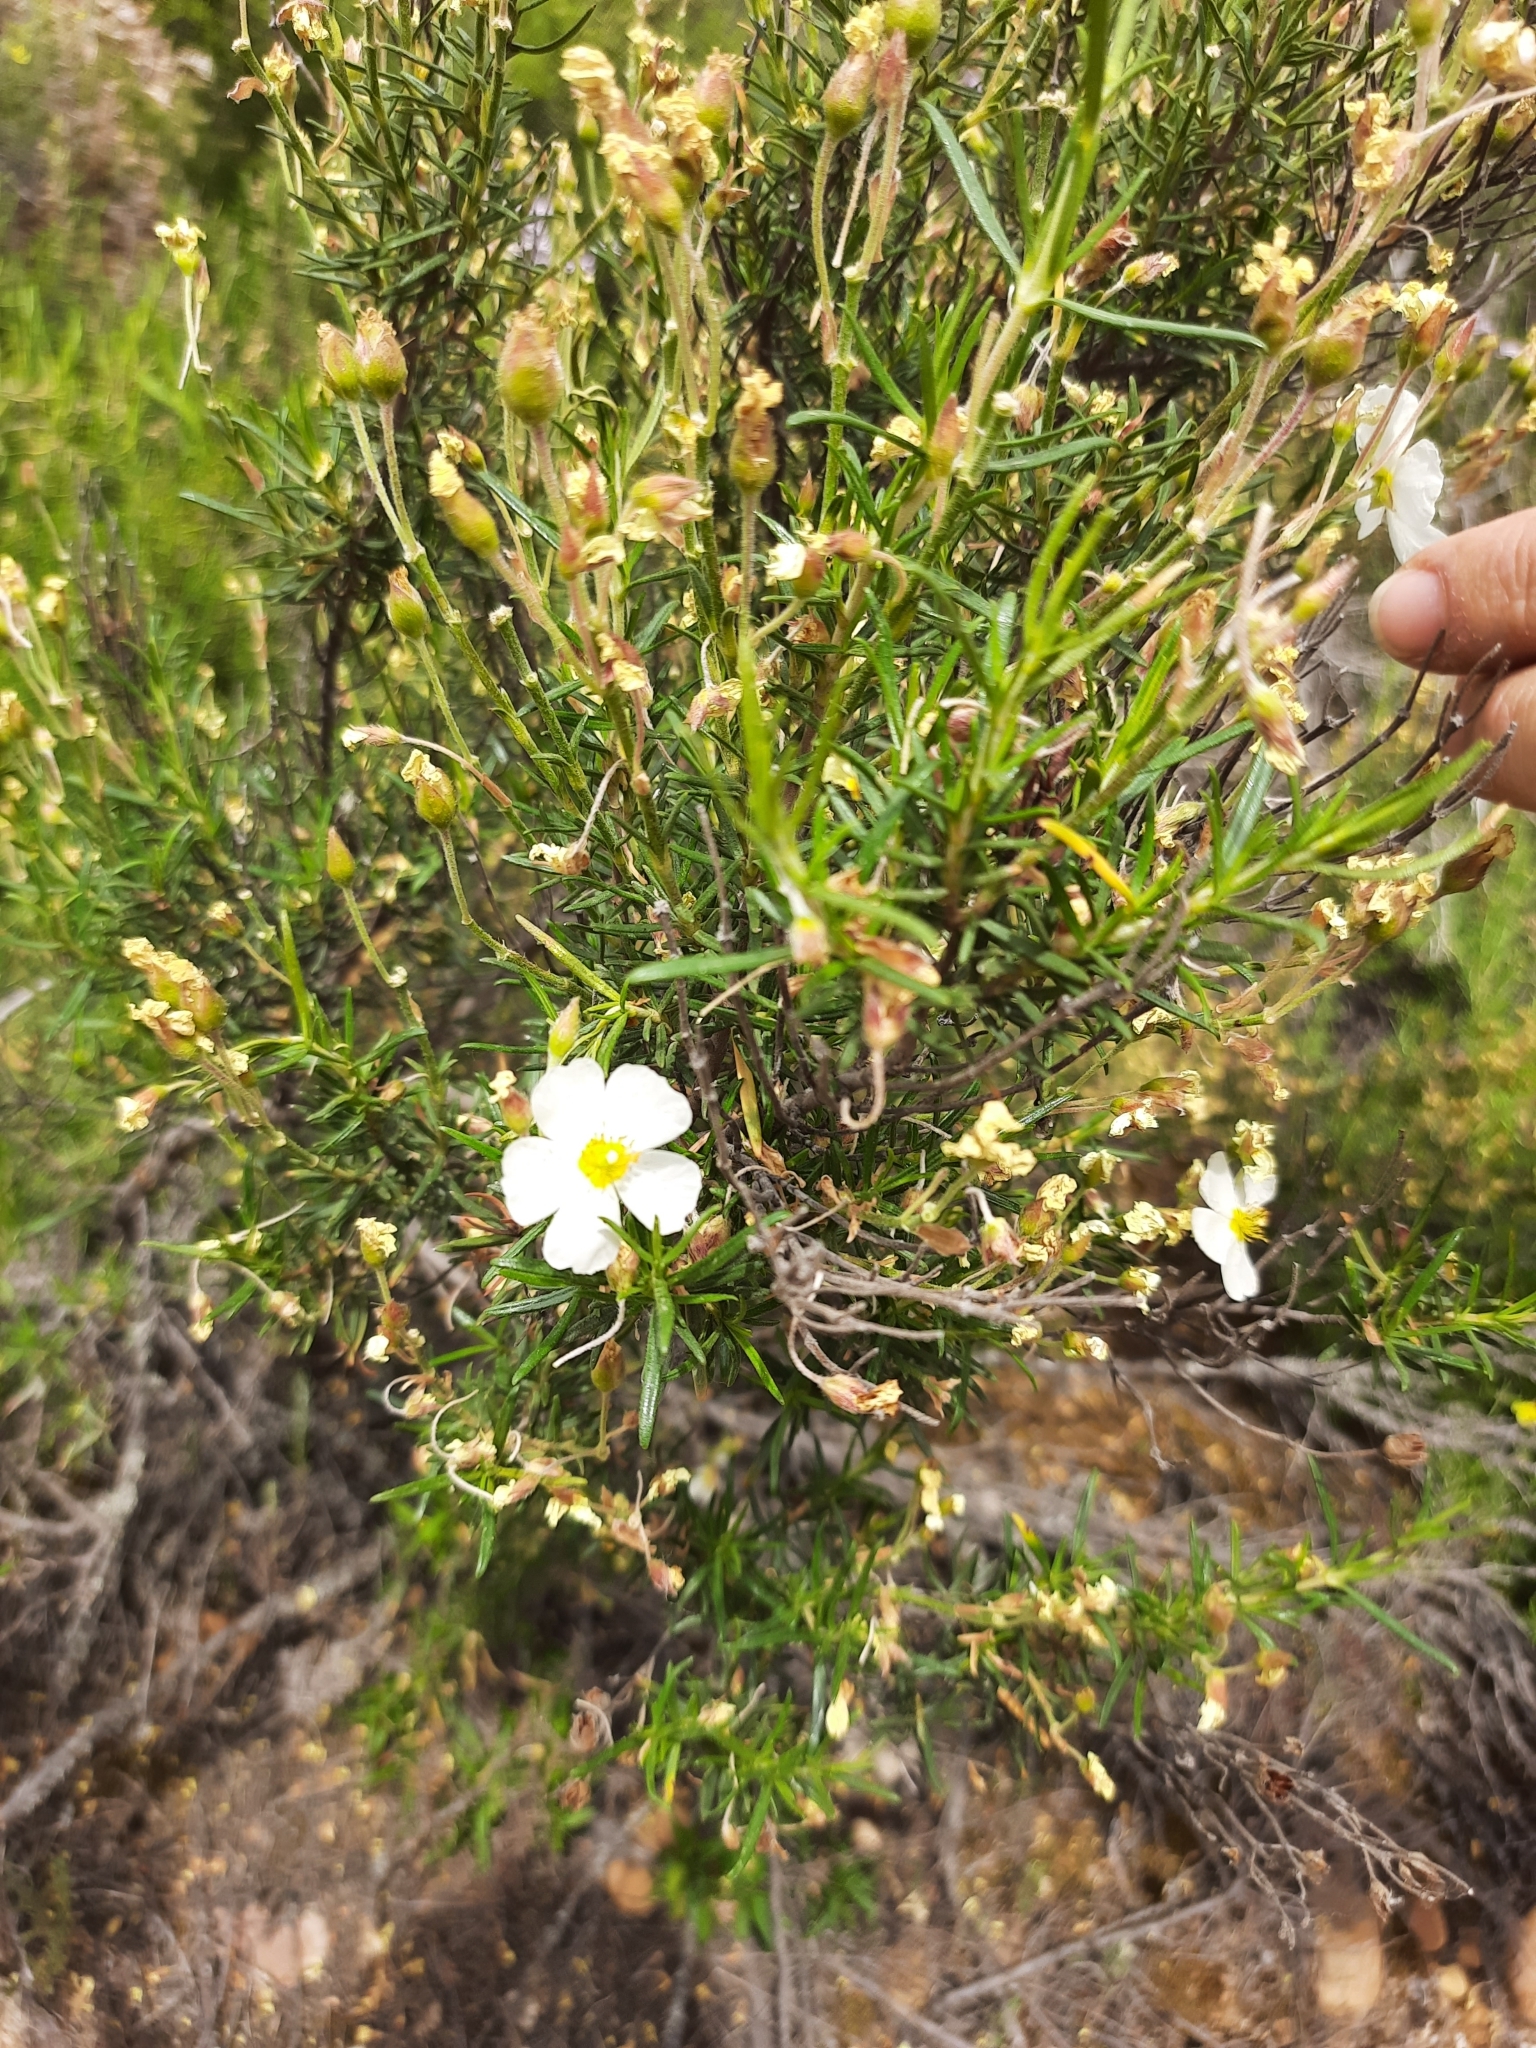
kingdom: Plantae
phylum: Tracheophyta
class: Magnoliopsida
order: Malvales
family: Cistaceae
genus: Cistus
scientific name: Cistus clusii
